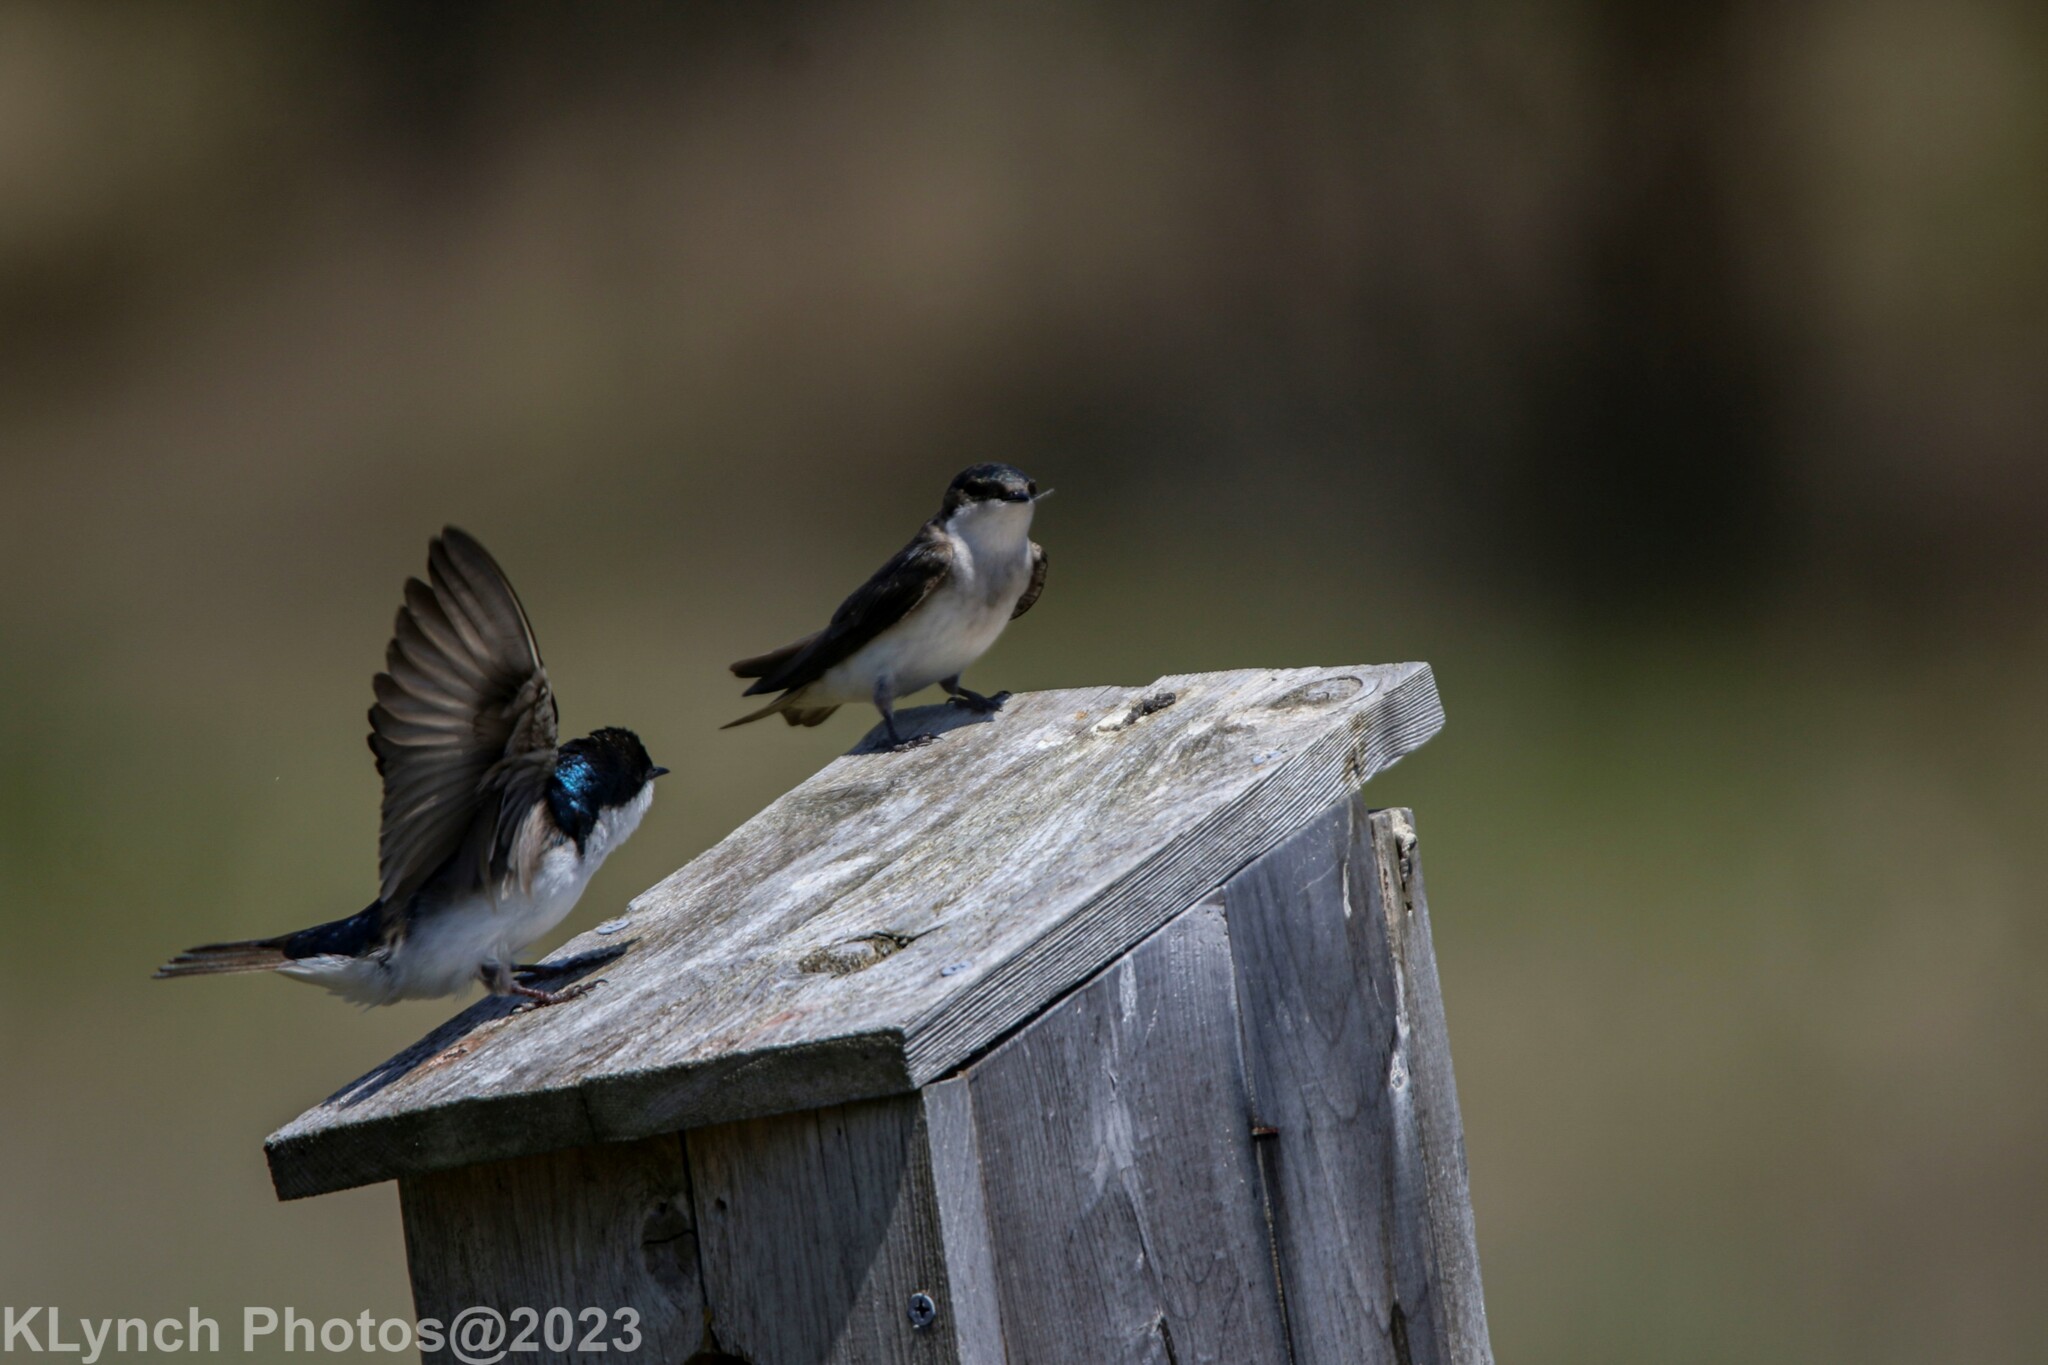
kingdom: Animalia
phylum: Chordata
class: Aves
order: Passeriformes
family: Hirundinidae
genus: Tachycineta
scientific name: Tachycineta bicolor
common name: Tree swallow
